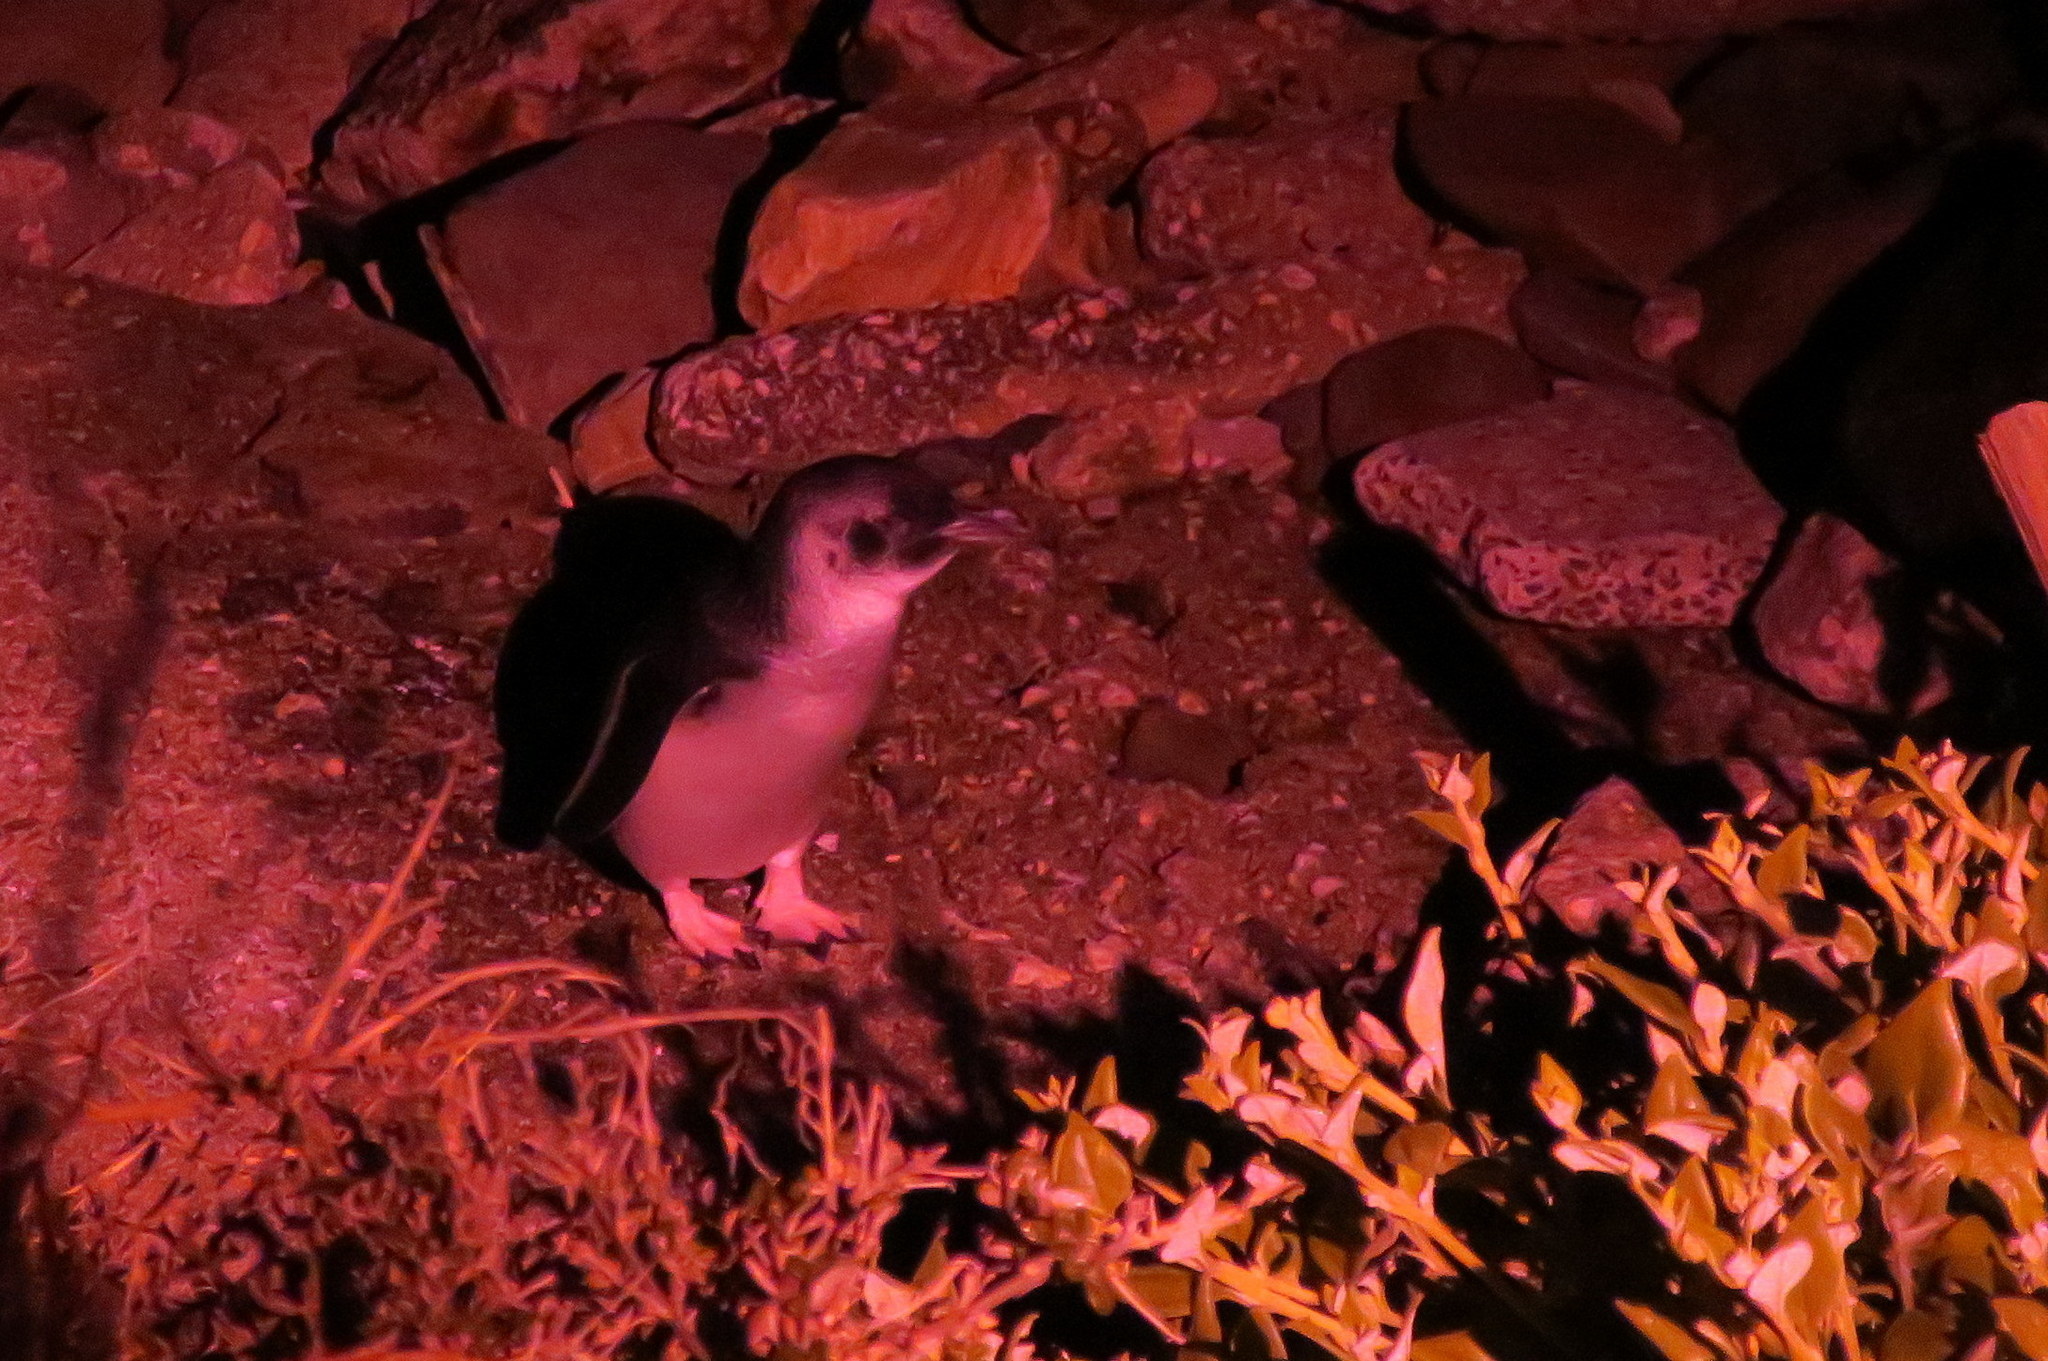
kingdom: Animalia
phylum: Chordata
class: Aves
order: Sphenisciformes
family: Spheniscidae
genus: Eudyptula
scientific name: Eudyptula minor
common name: Little penguin
